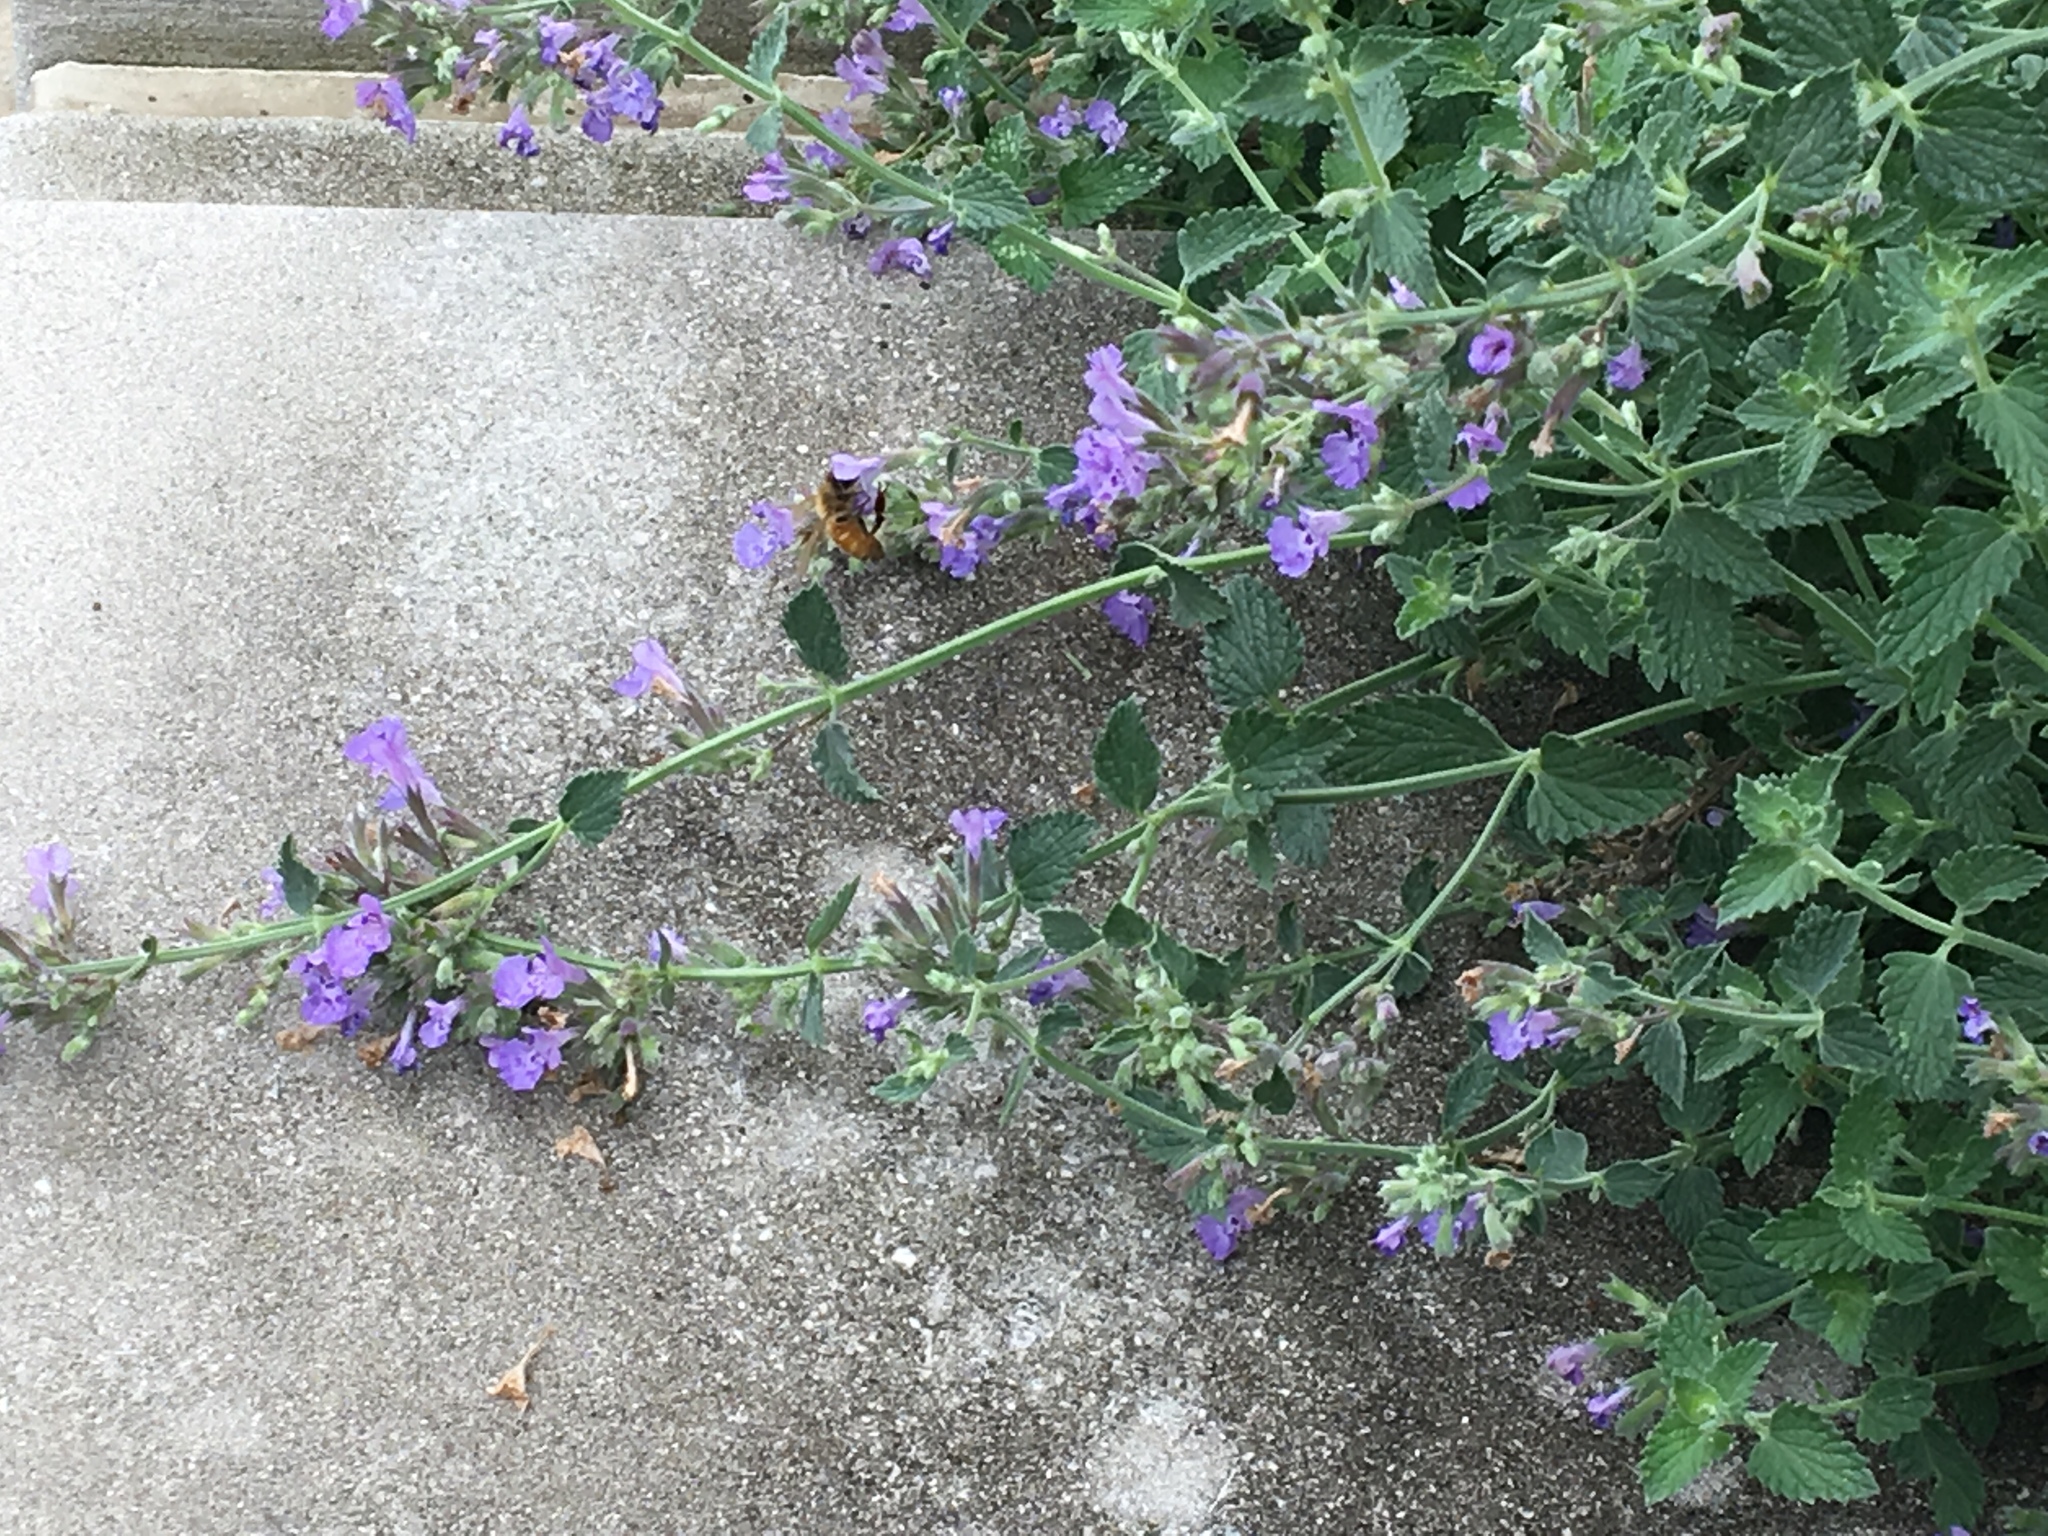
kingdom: Animalia
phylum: Arthropoda
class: Insecta
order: Hymenoptera
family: Apidae
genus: Apis
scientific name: Apis mellifera
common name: Honey bee
